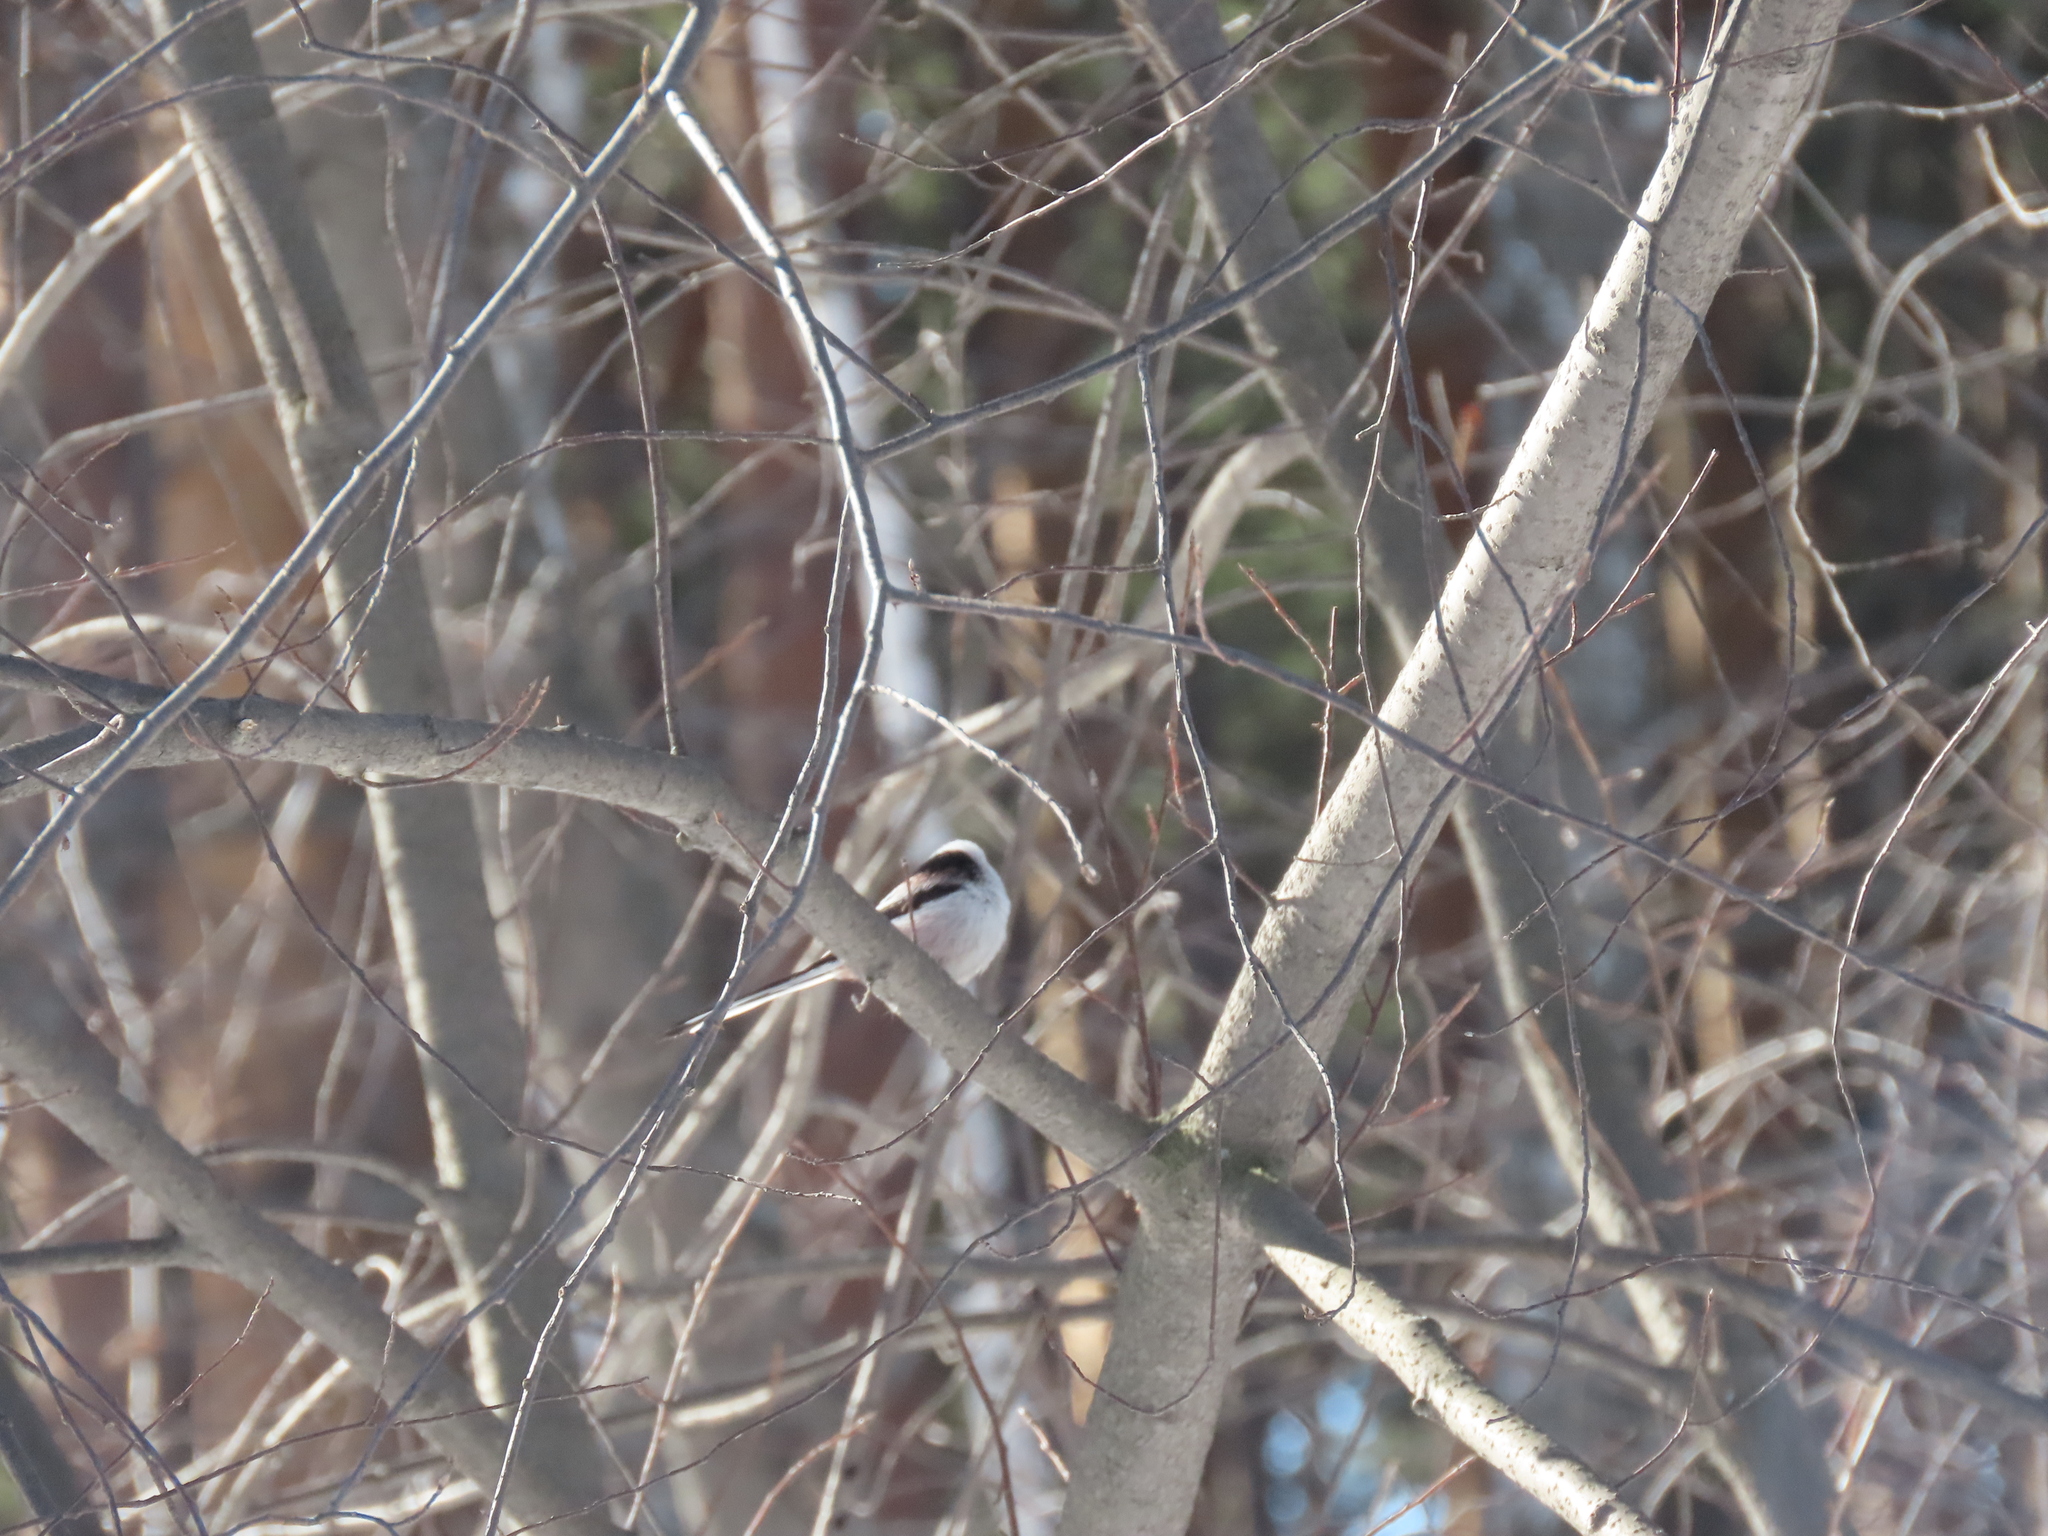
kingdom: Animalia
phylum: Chordata
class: Aves
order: Passeriformes
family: Aegithalidae
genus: Aegithalos
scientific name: Aegithalos caudatus
